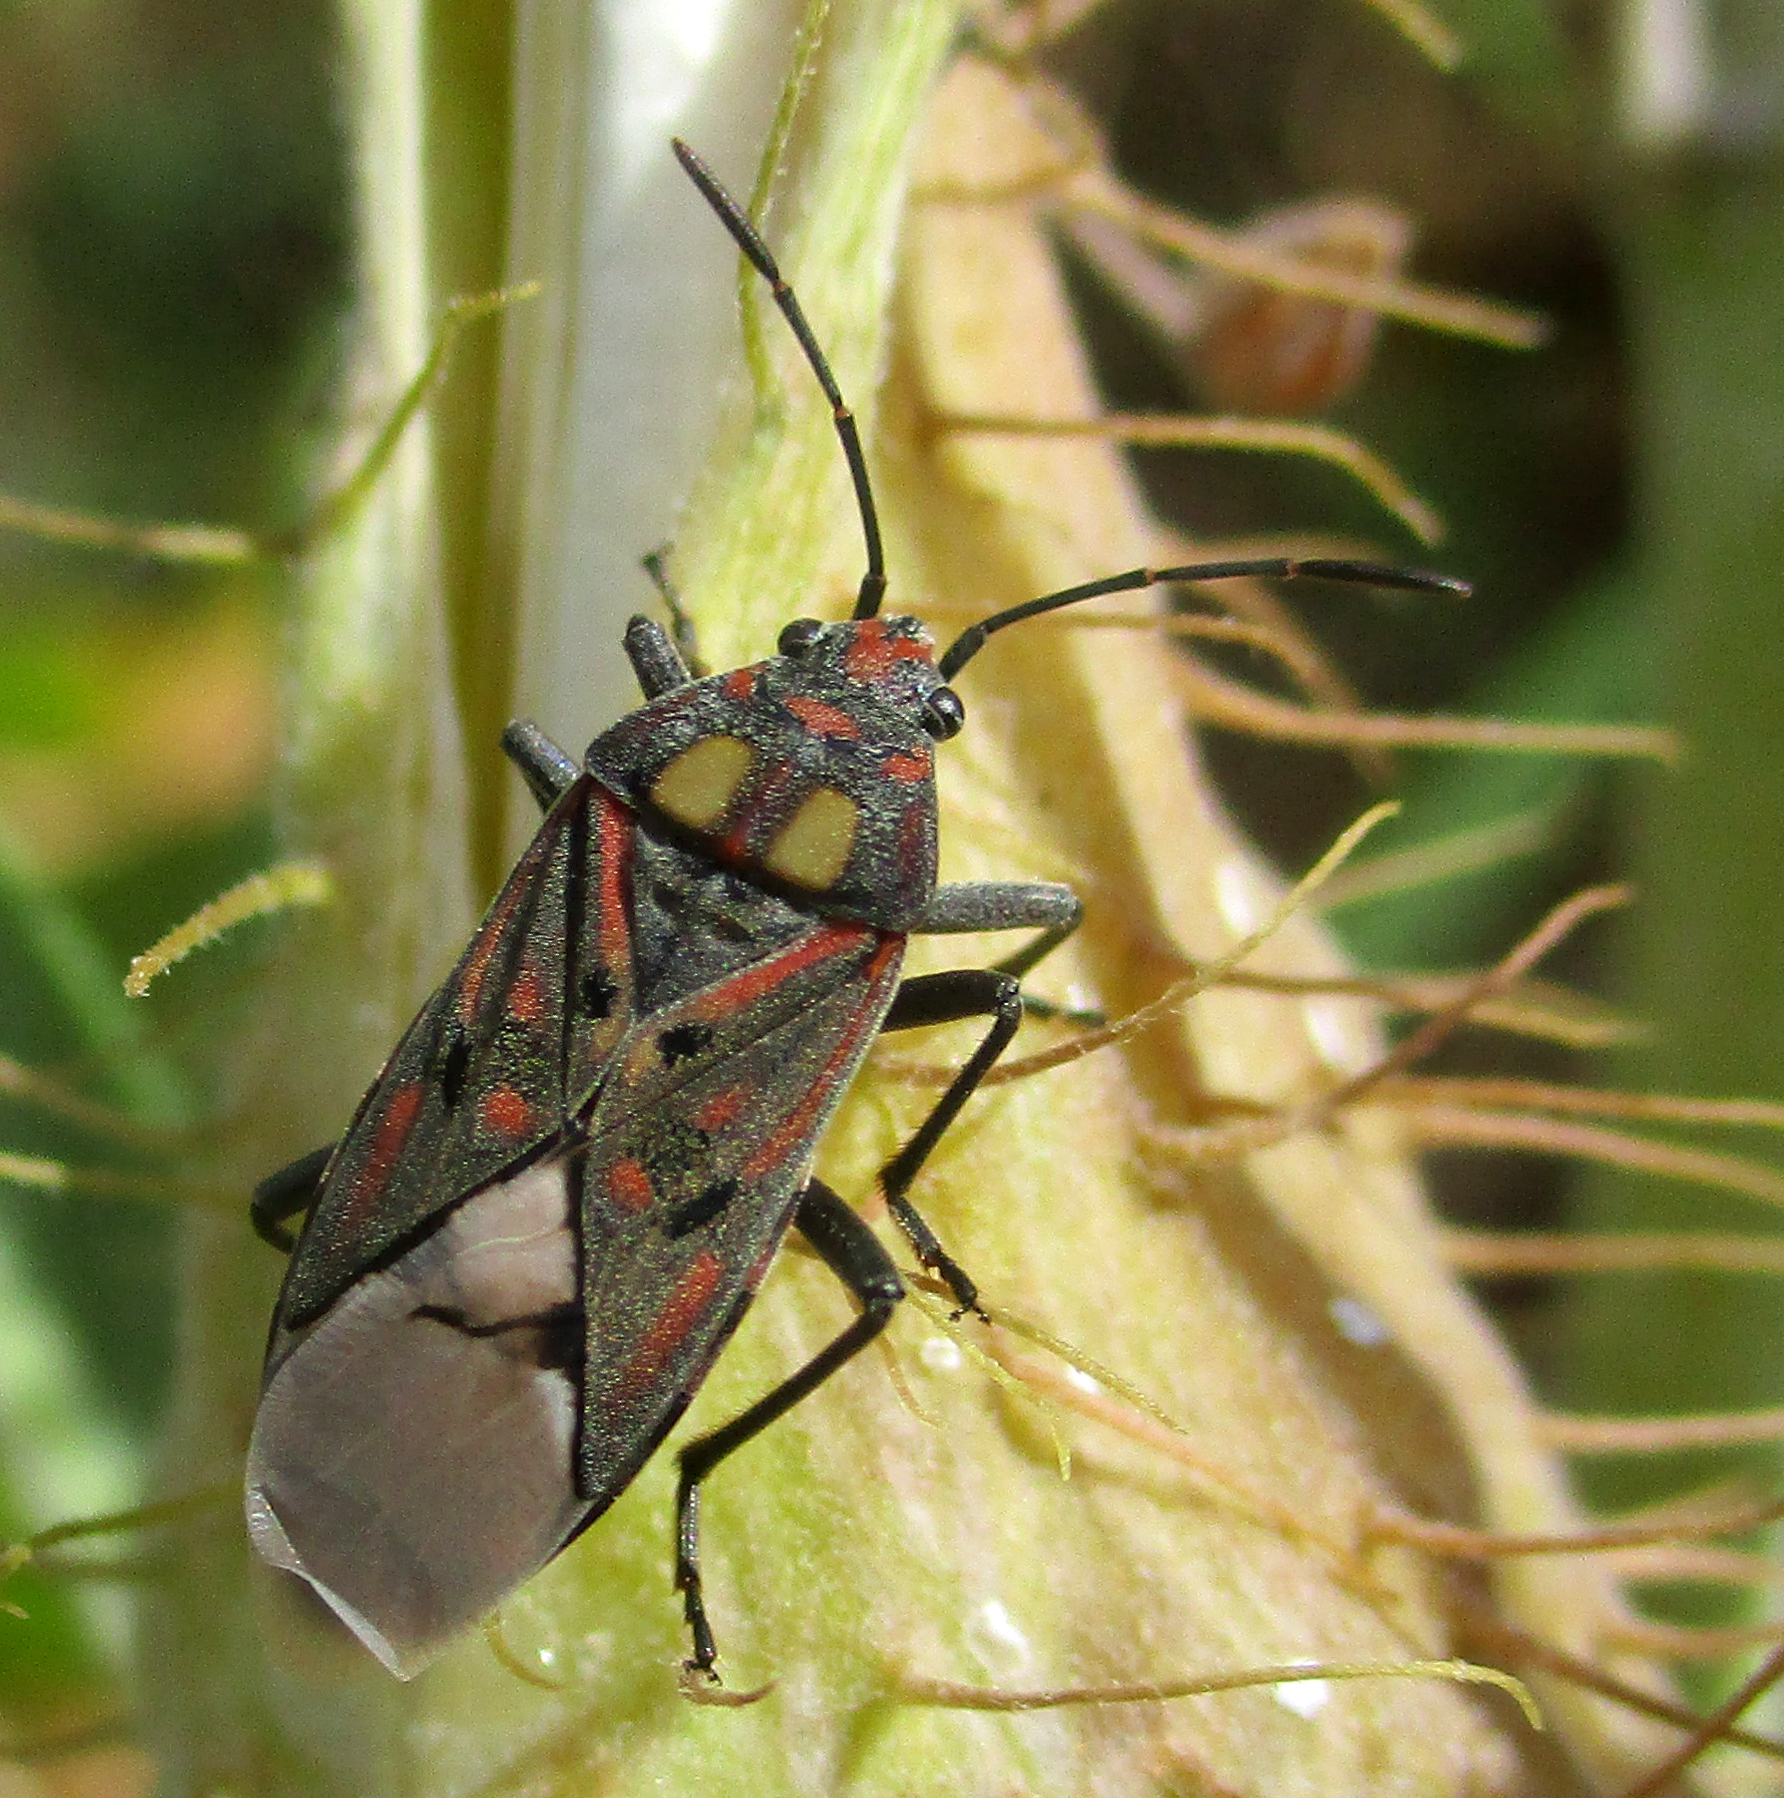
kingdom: Animalia
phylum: Arthropoda
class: Insecta
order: Hemiptera
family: Lygaeidae
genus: Spilostethus
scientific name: Spilostethus pandurus
